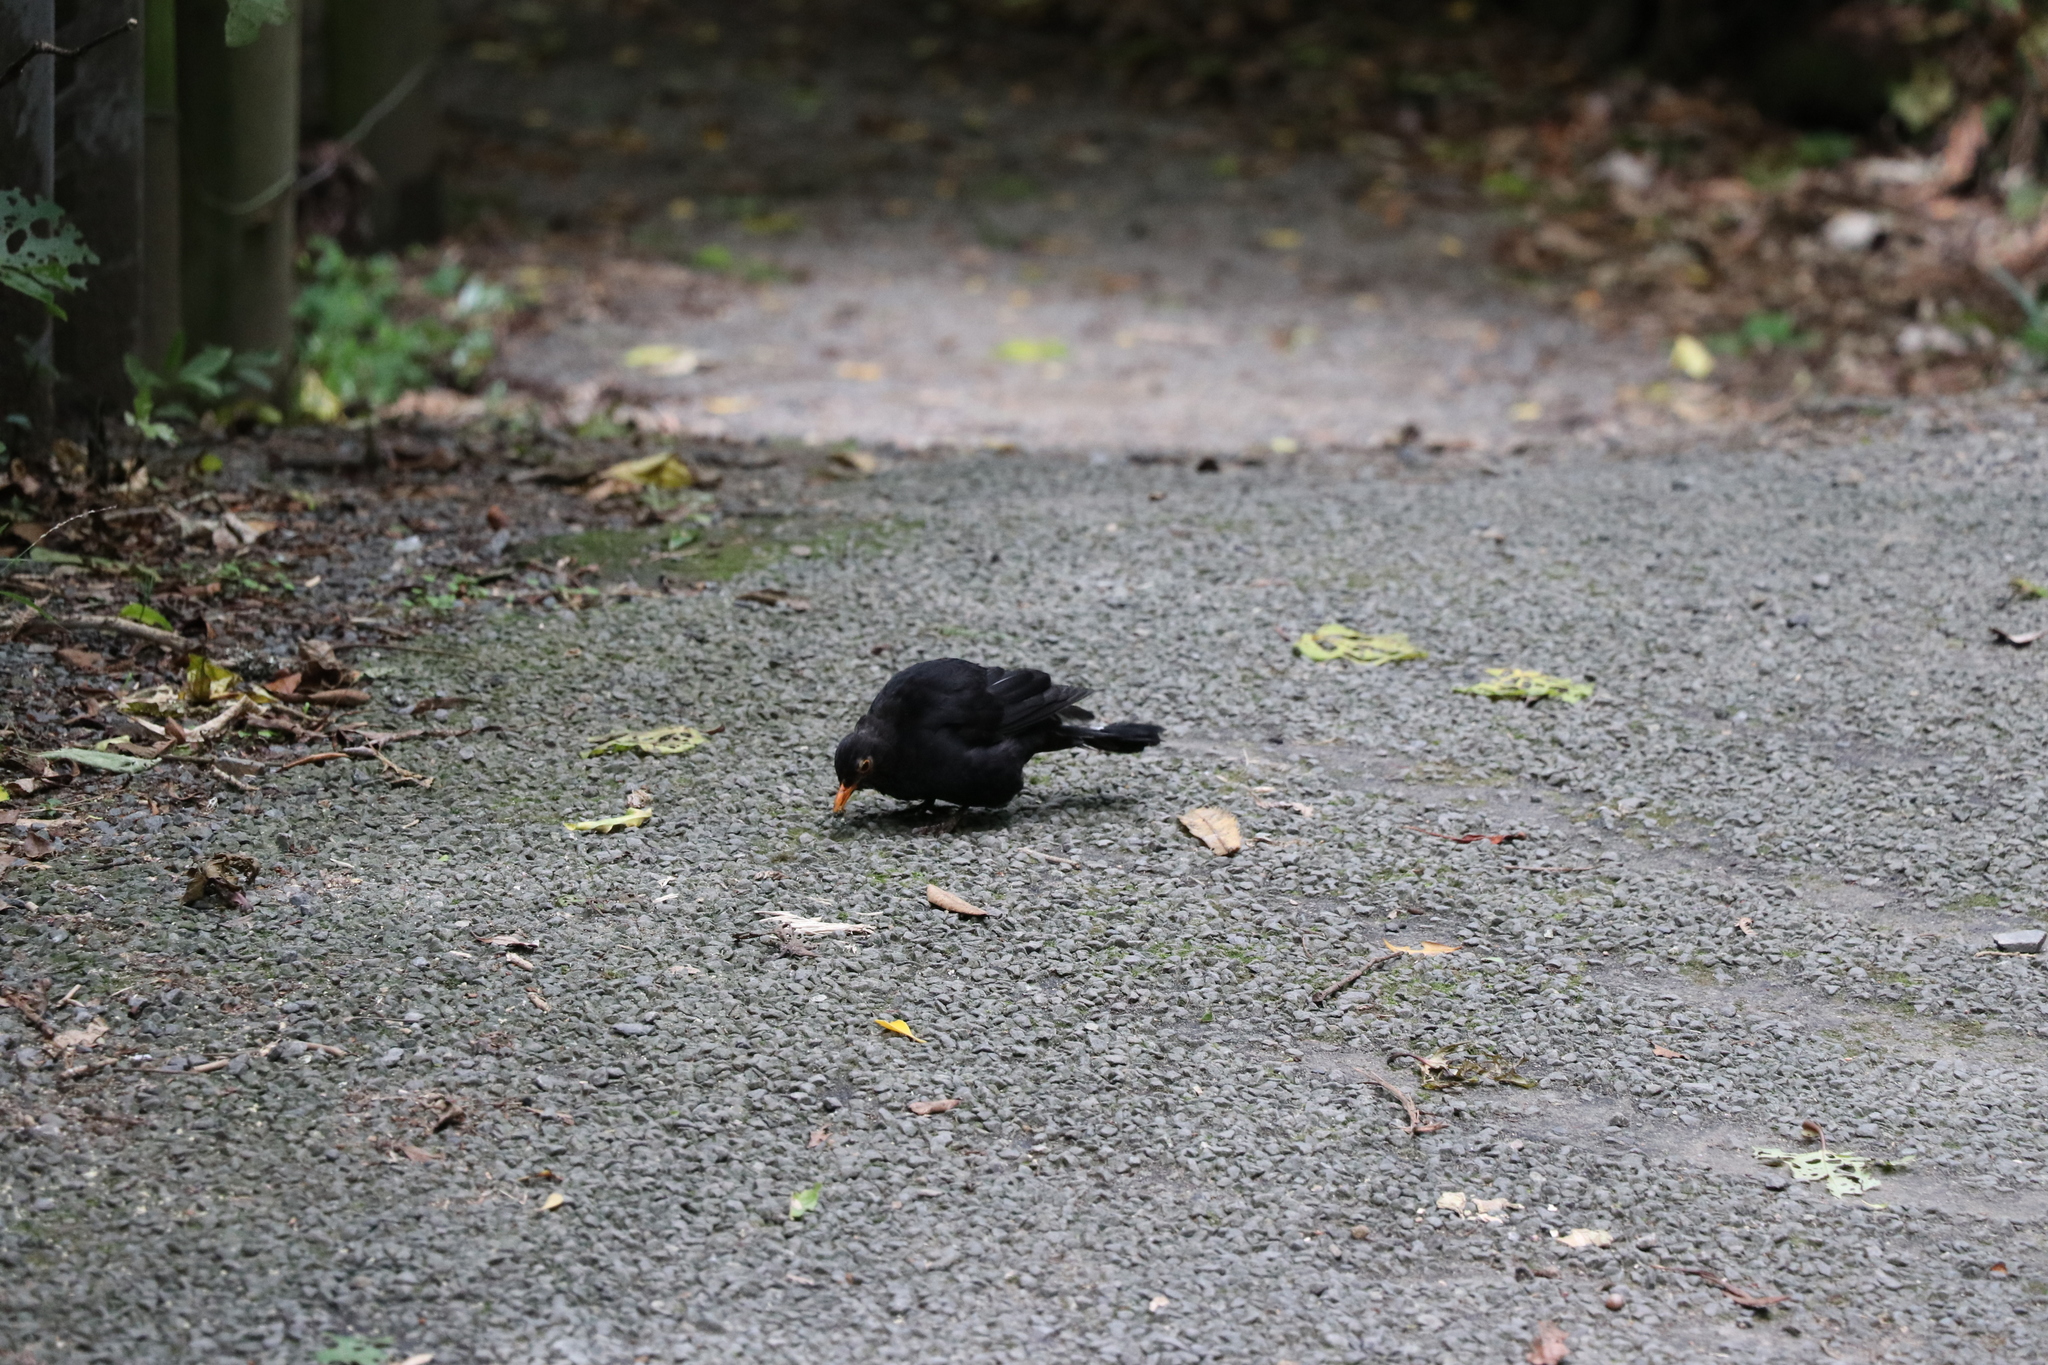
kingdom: Animalia
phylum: Chordata
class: Aves
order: Passeriformes
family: Turdidae
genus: Turdus
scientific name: Turdus merula
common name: Common blackbird
